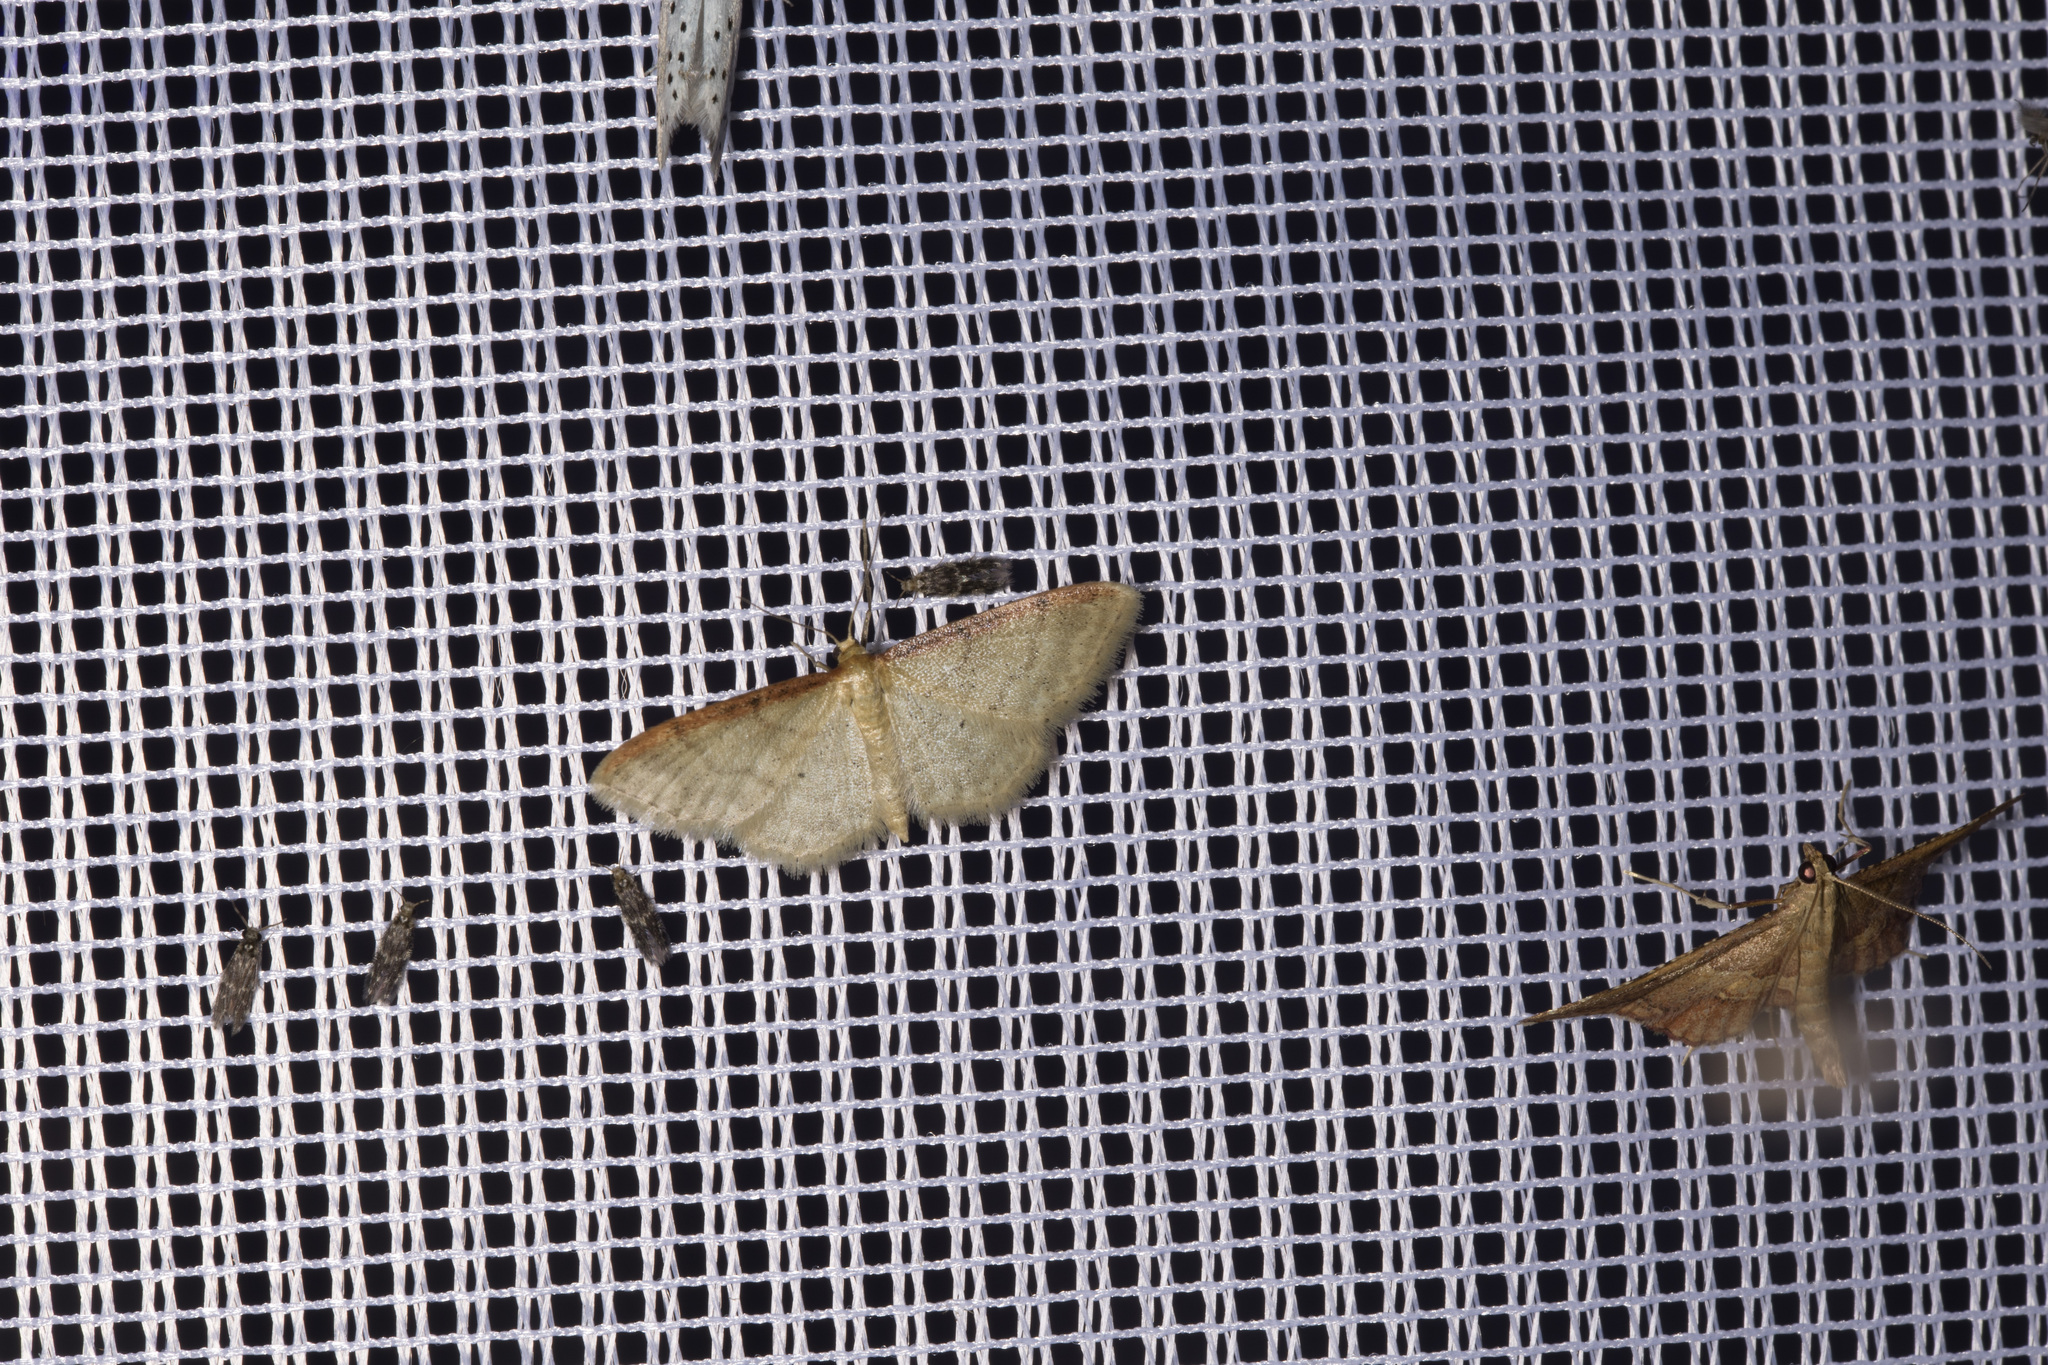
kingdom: Animalia
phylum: Arthropoda
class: Insecta
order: Lepidoptera
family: Pyralidae
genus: Endotricha
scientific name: Endotricha flammealis
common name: Rosy tabby
